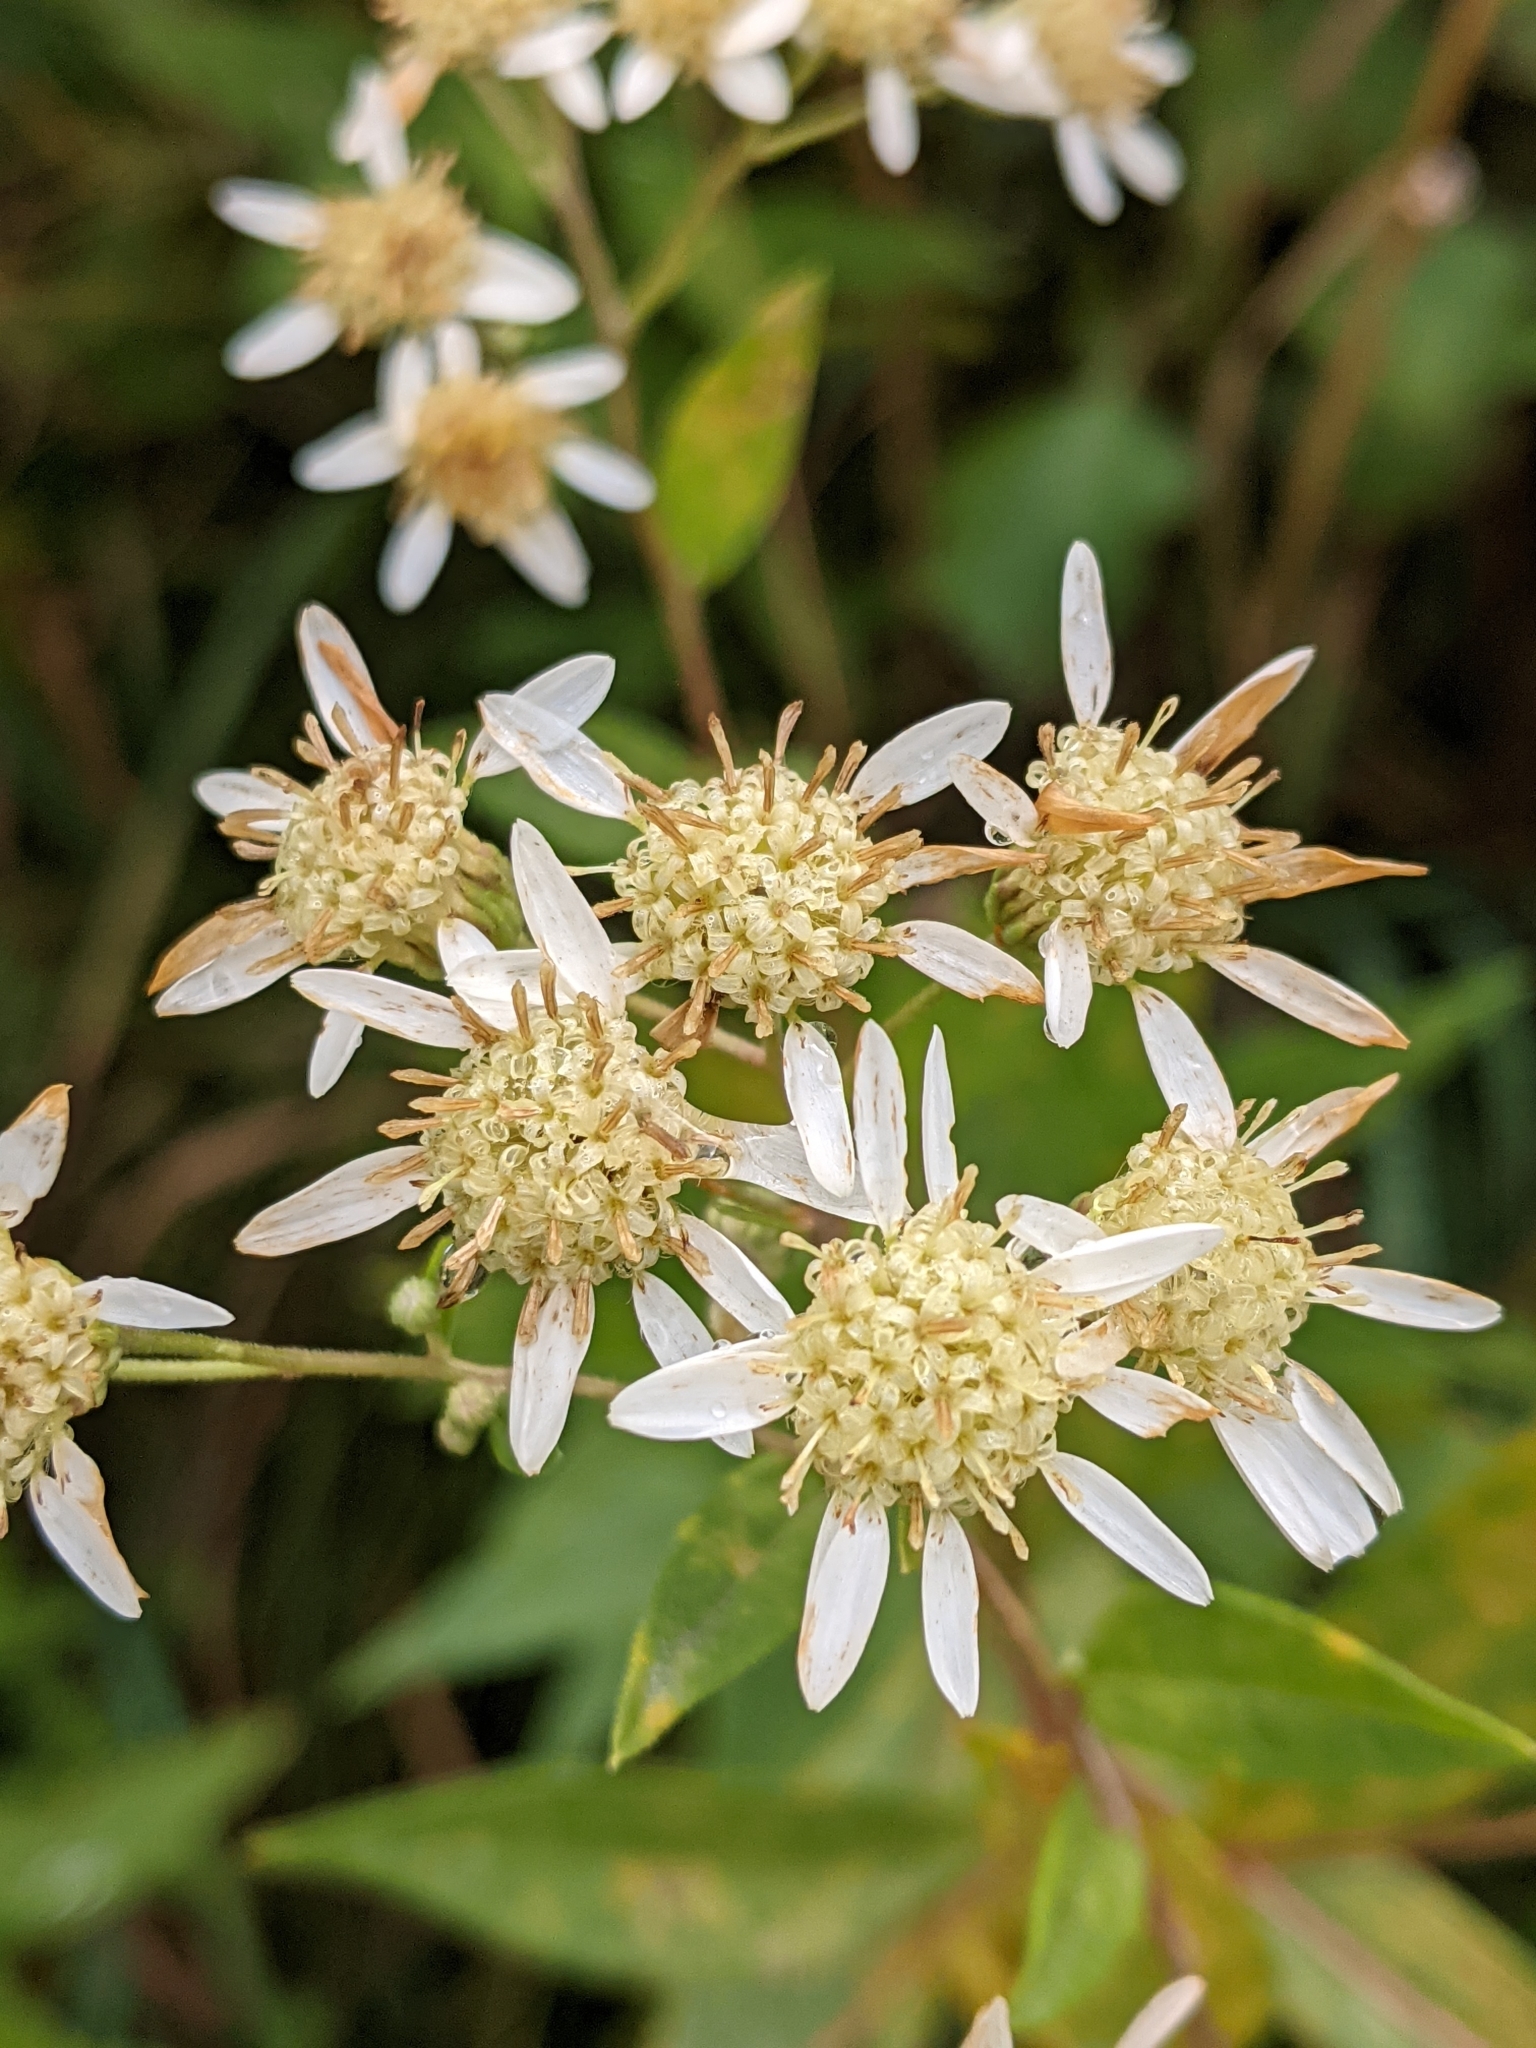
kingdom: Plantae
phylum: Tracheophyta
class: Magnoliopsida
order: Asterales
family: Asteraceae
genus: Doellingeria
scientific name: Doellingeria umbellata
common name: Flat-top white aster
